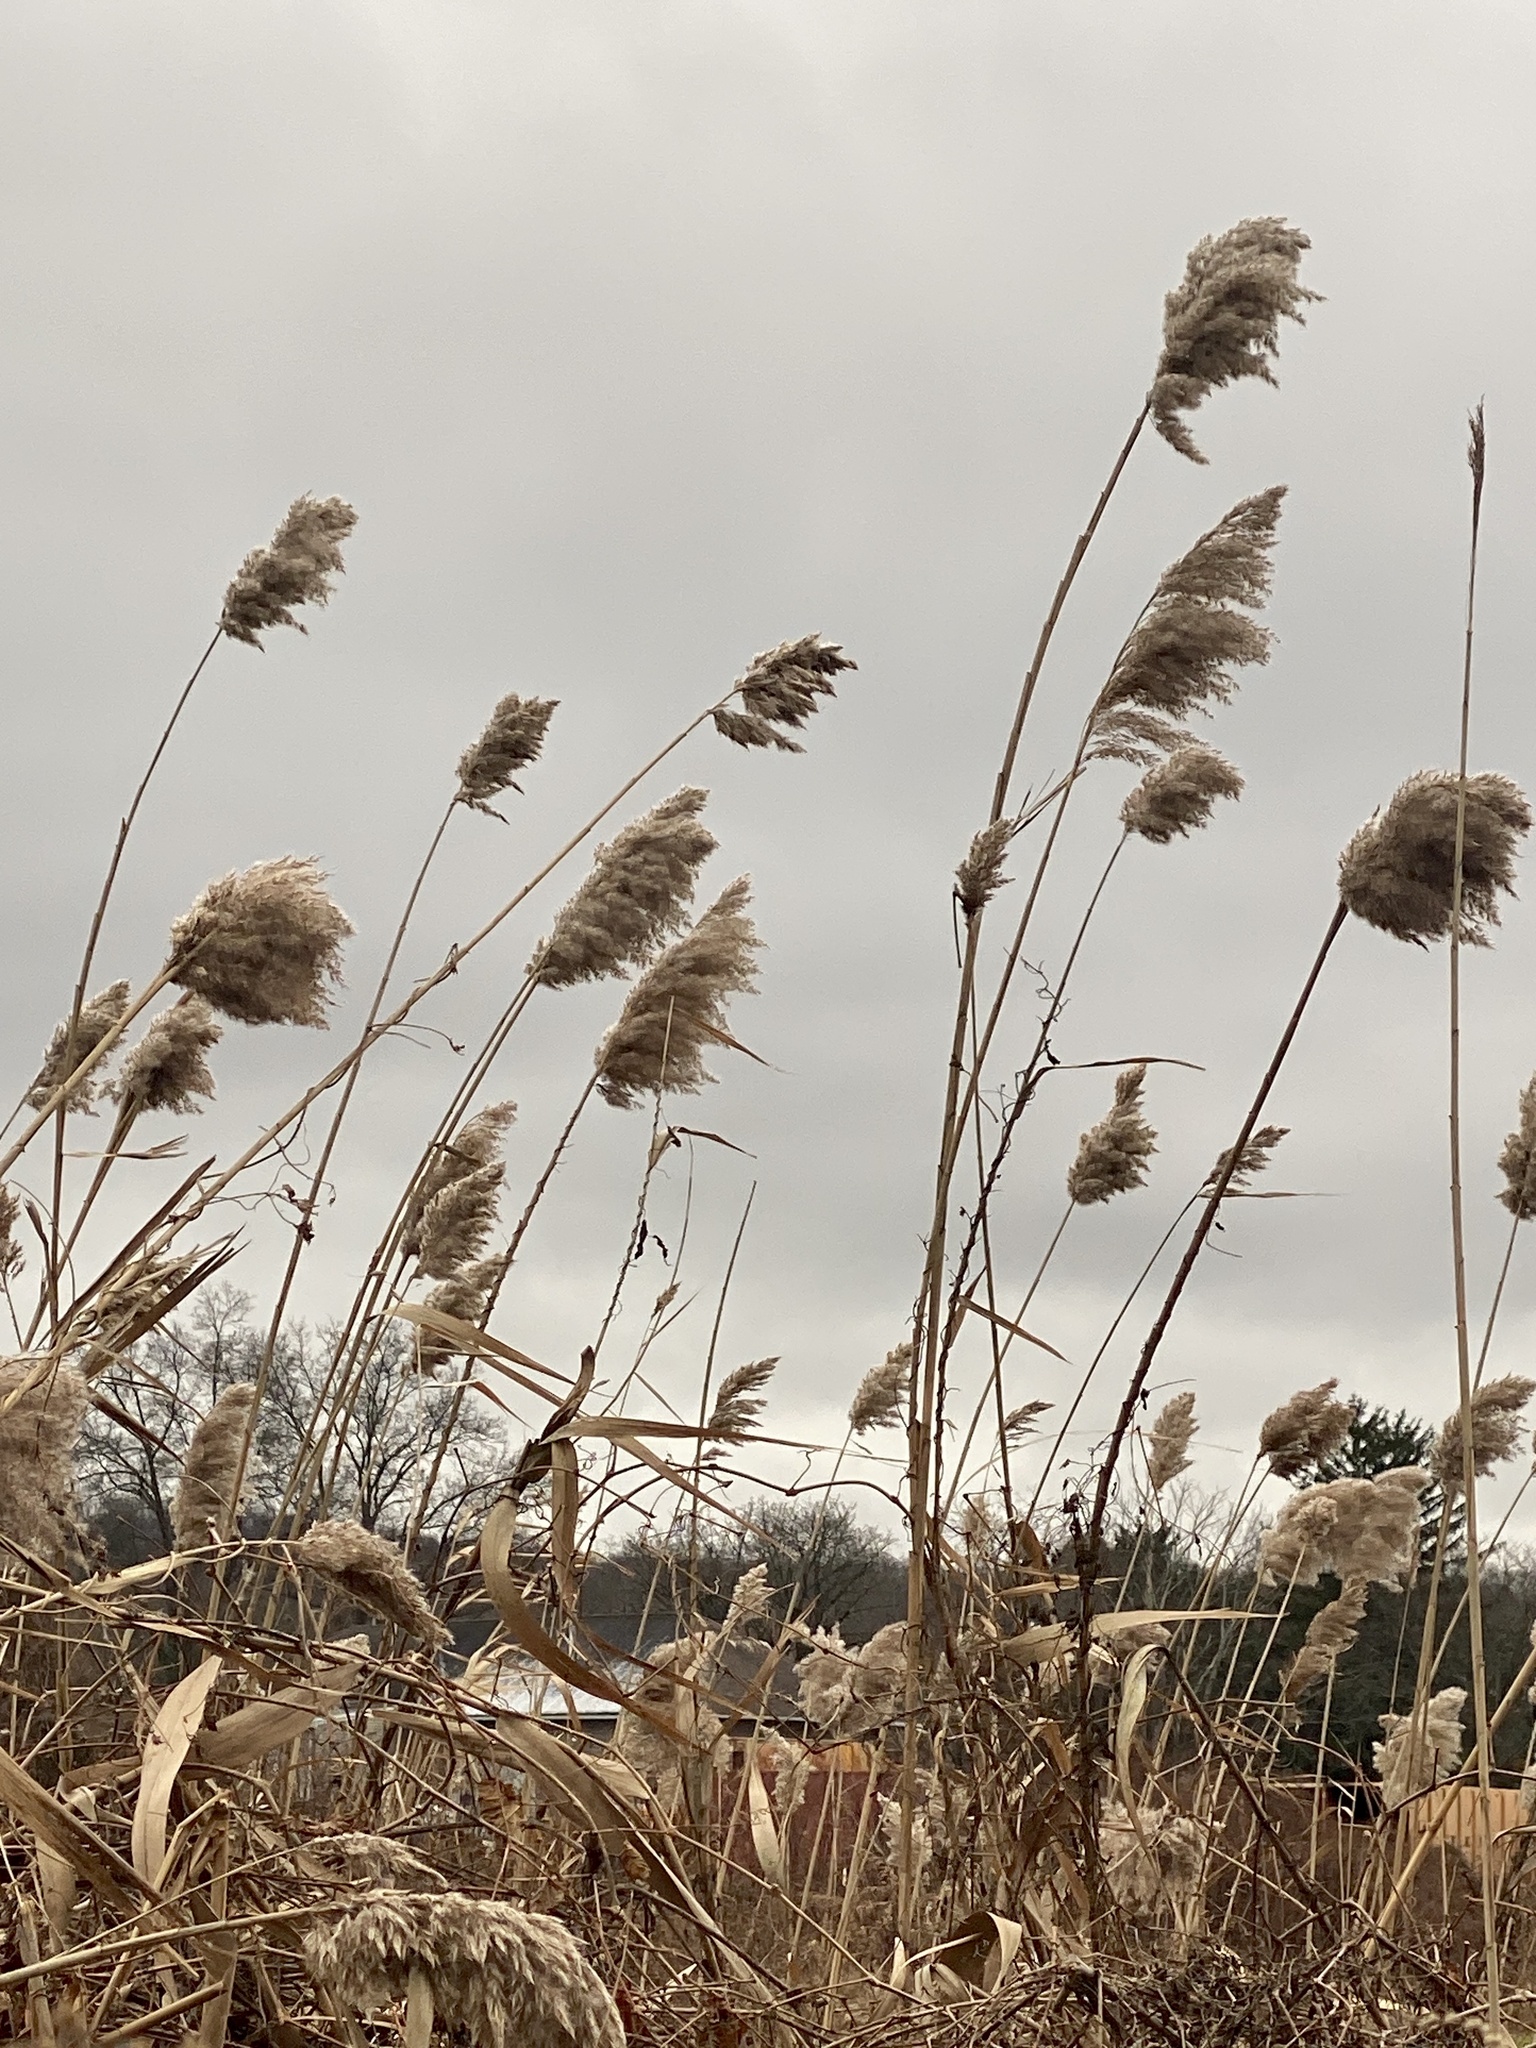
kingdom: Plantae
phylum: Tracheophyta
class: Liliopsida
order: Poales
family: Poaceae
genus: Phragmites
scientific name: Phragmites australis
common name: Common reed
